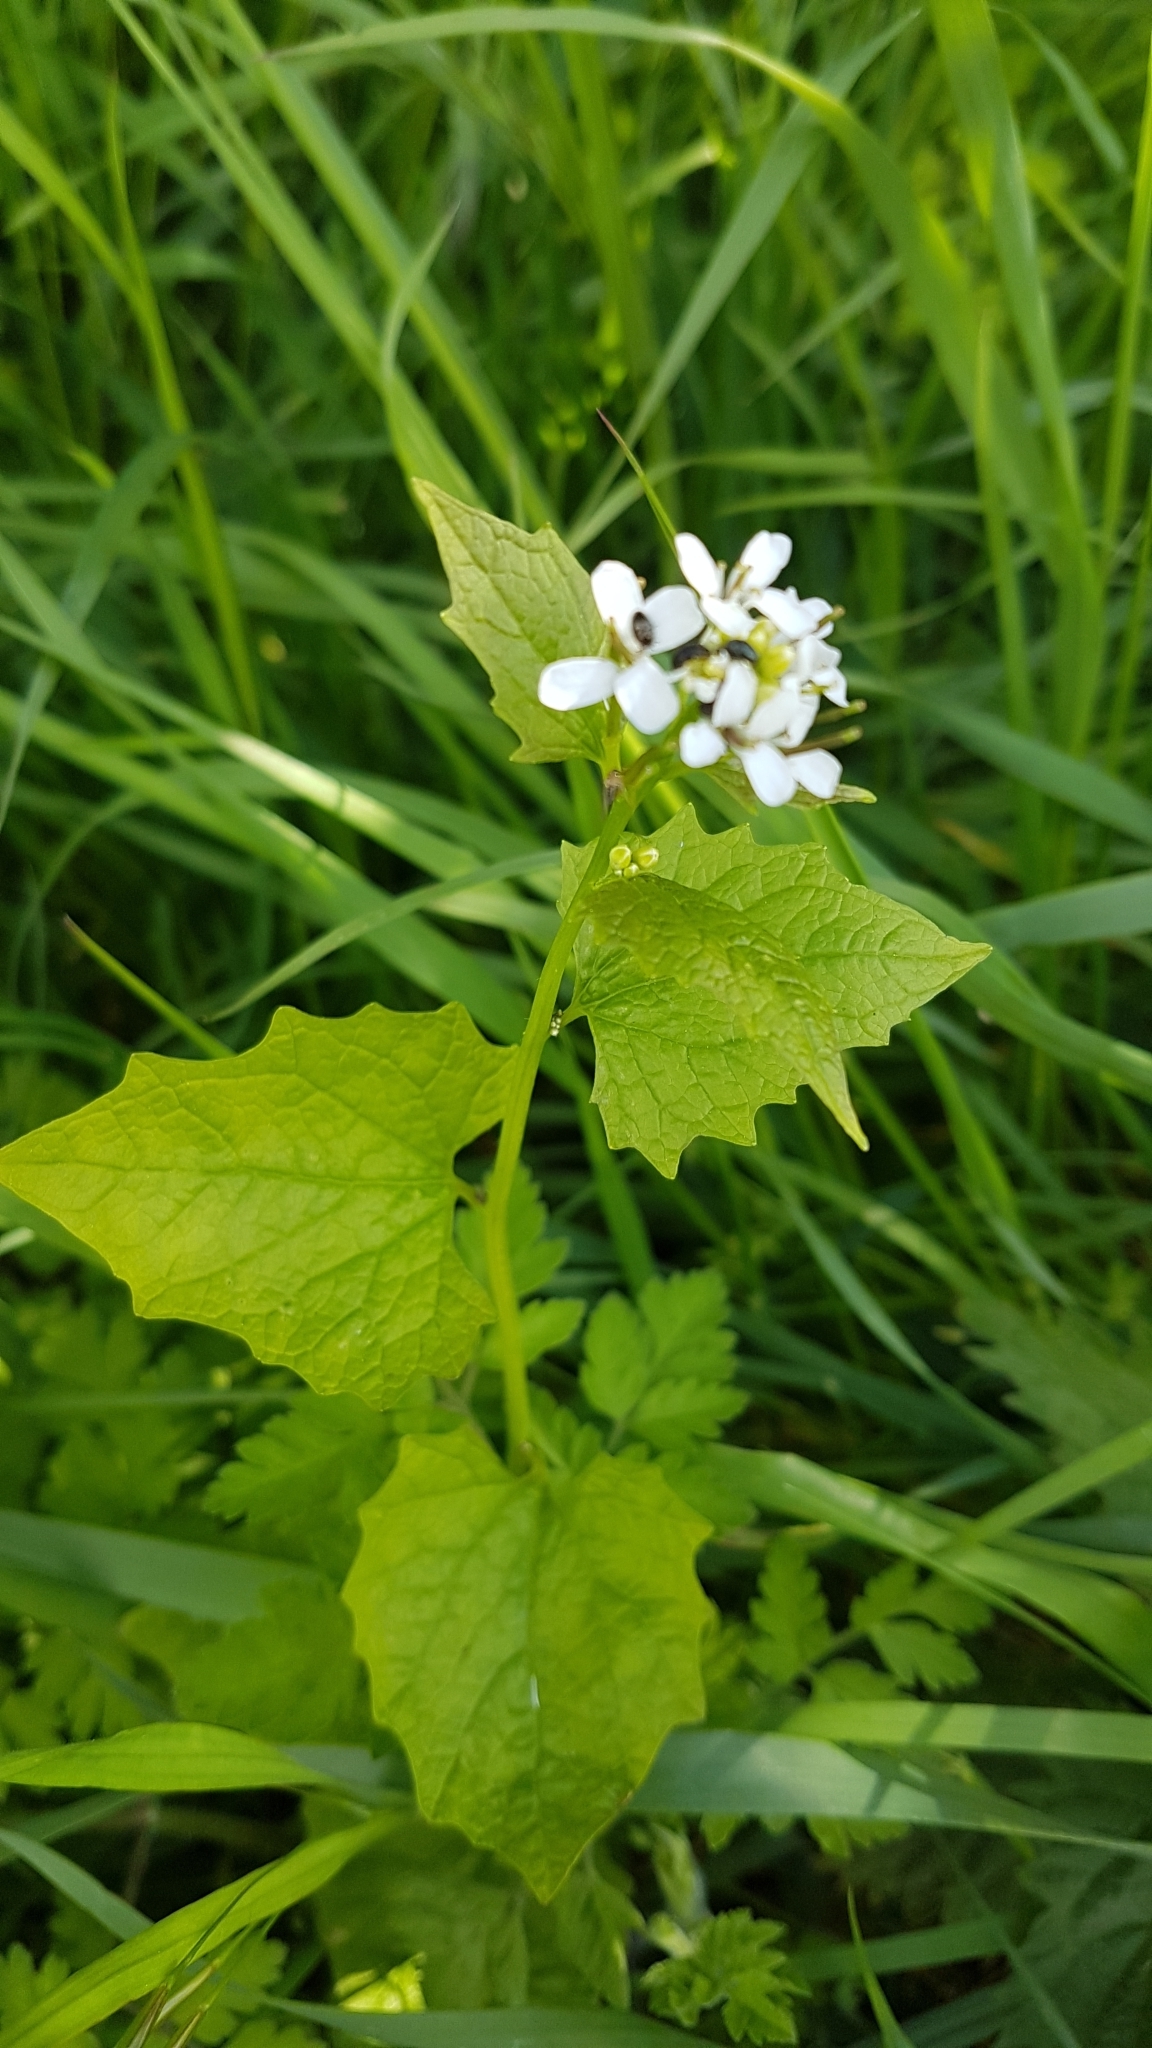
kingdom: Plantae
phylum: Tracheophyta
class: Magnoliopsida
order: Brassicales
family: Brassicaceae
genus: Alliaria
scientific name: Alliaria petiolata
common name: Garlic mustard
